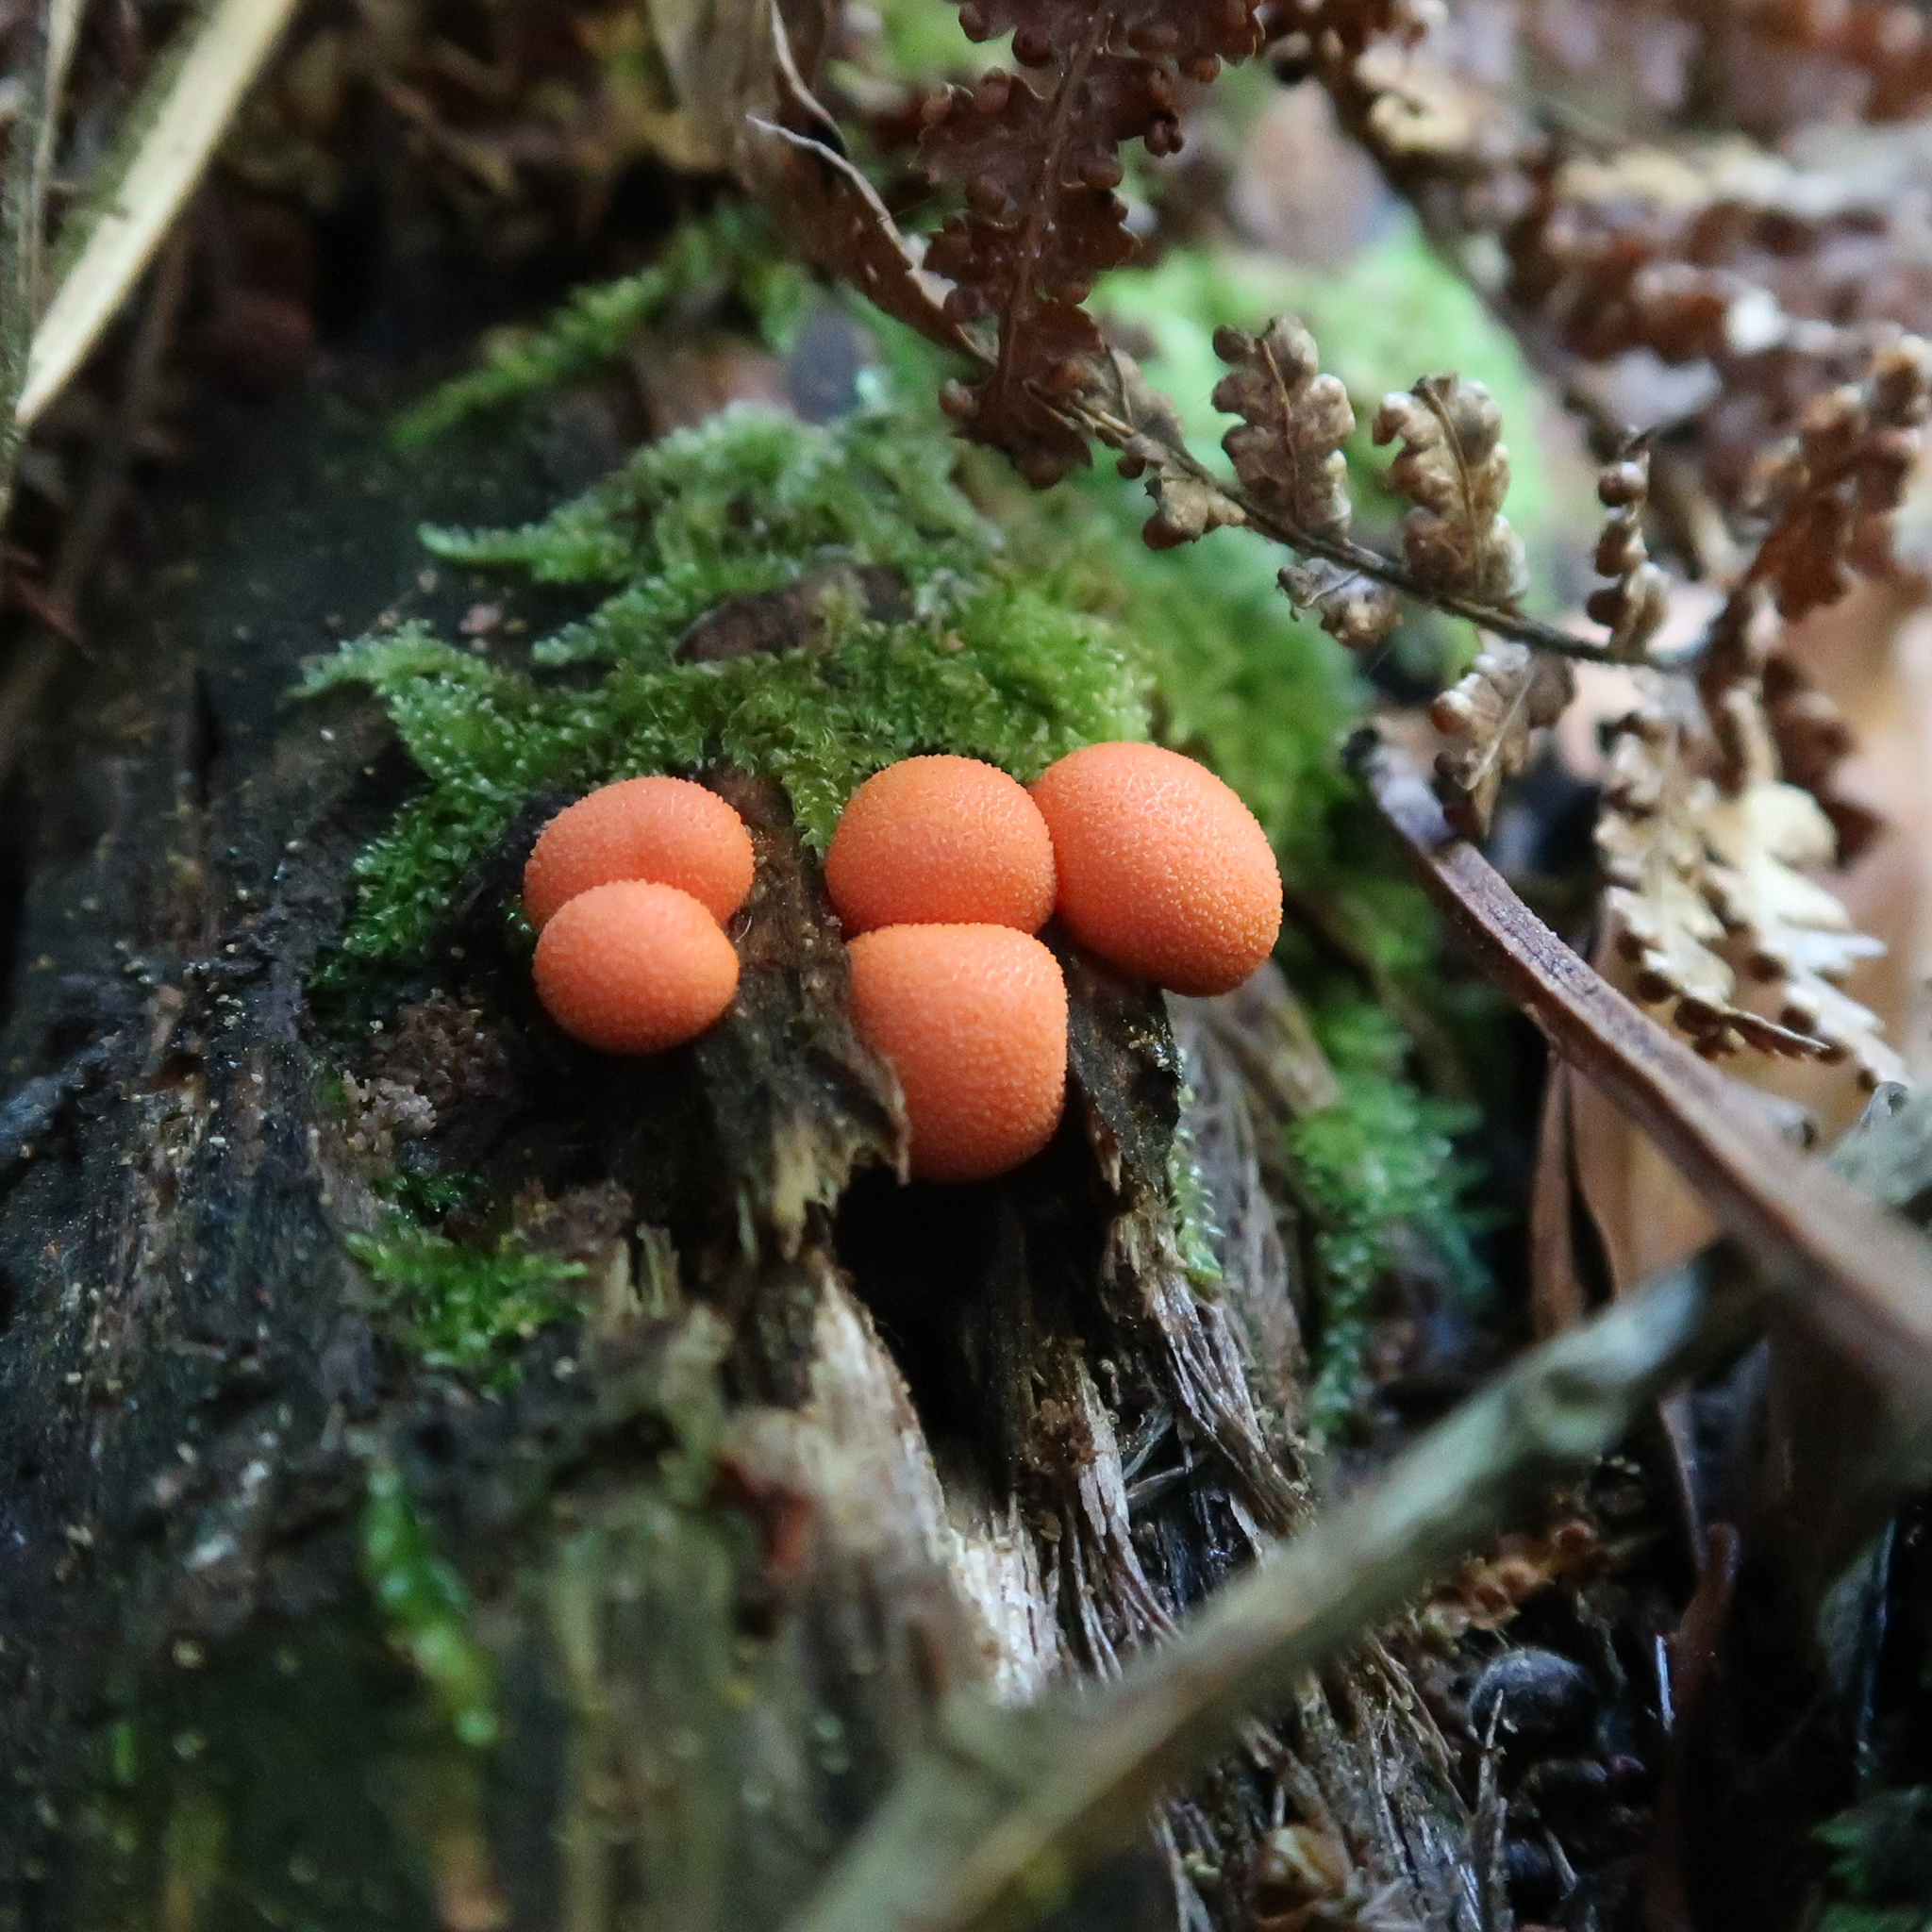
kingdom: Protozoa
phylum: Mycetozoa
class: Myxomycetes
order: Cribrariales
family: Tubiferaceae
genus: Lycogala
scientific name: Lycogala epidendrum
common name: Wolf's milk
